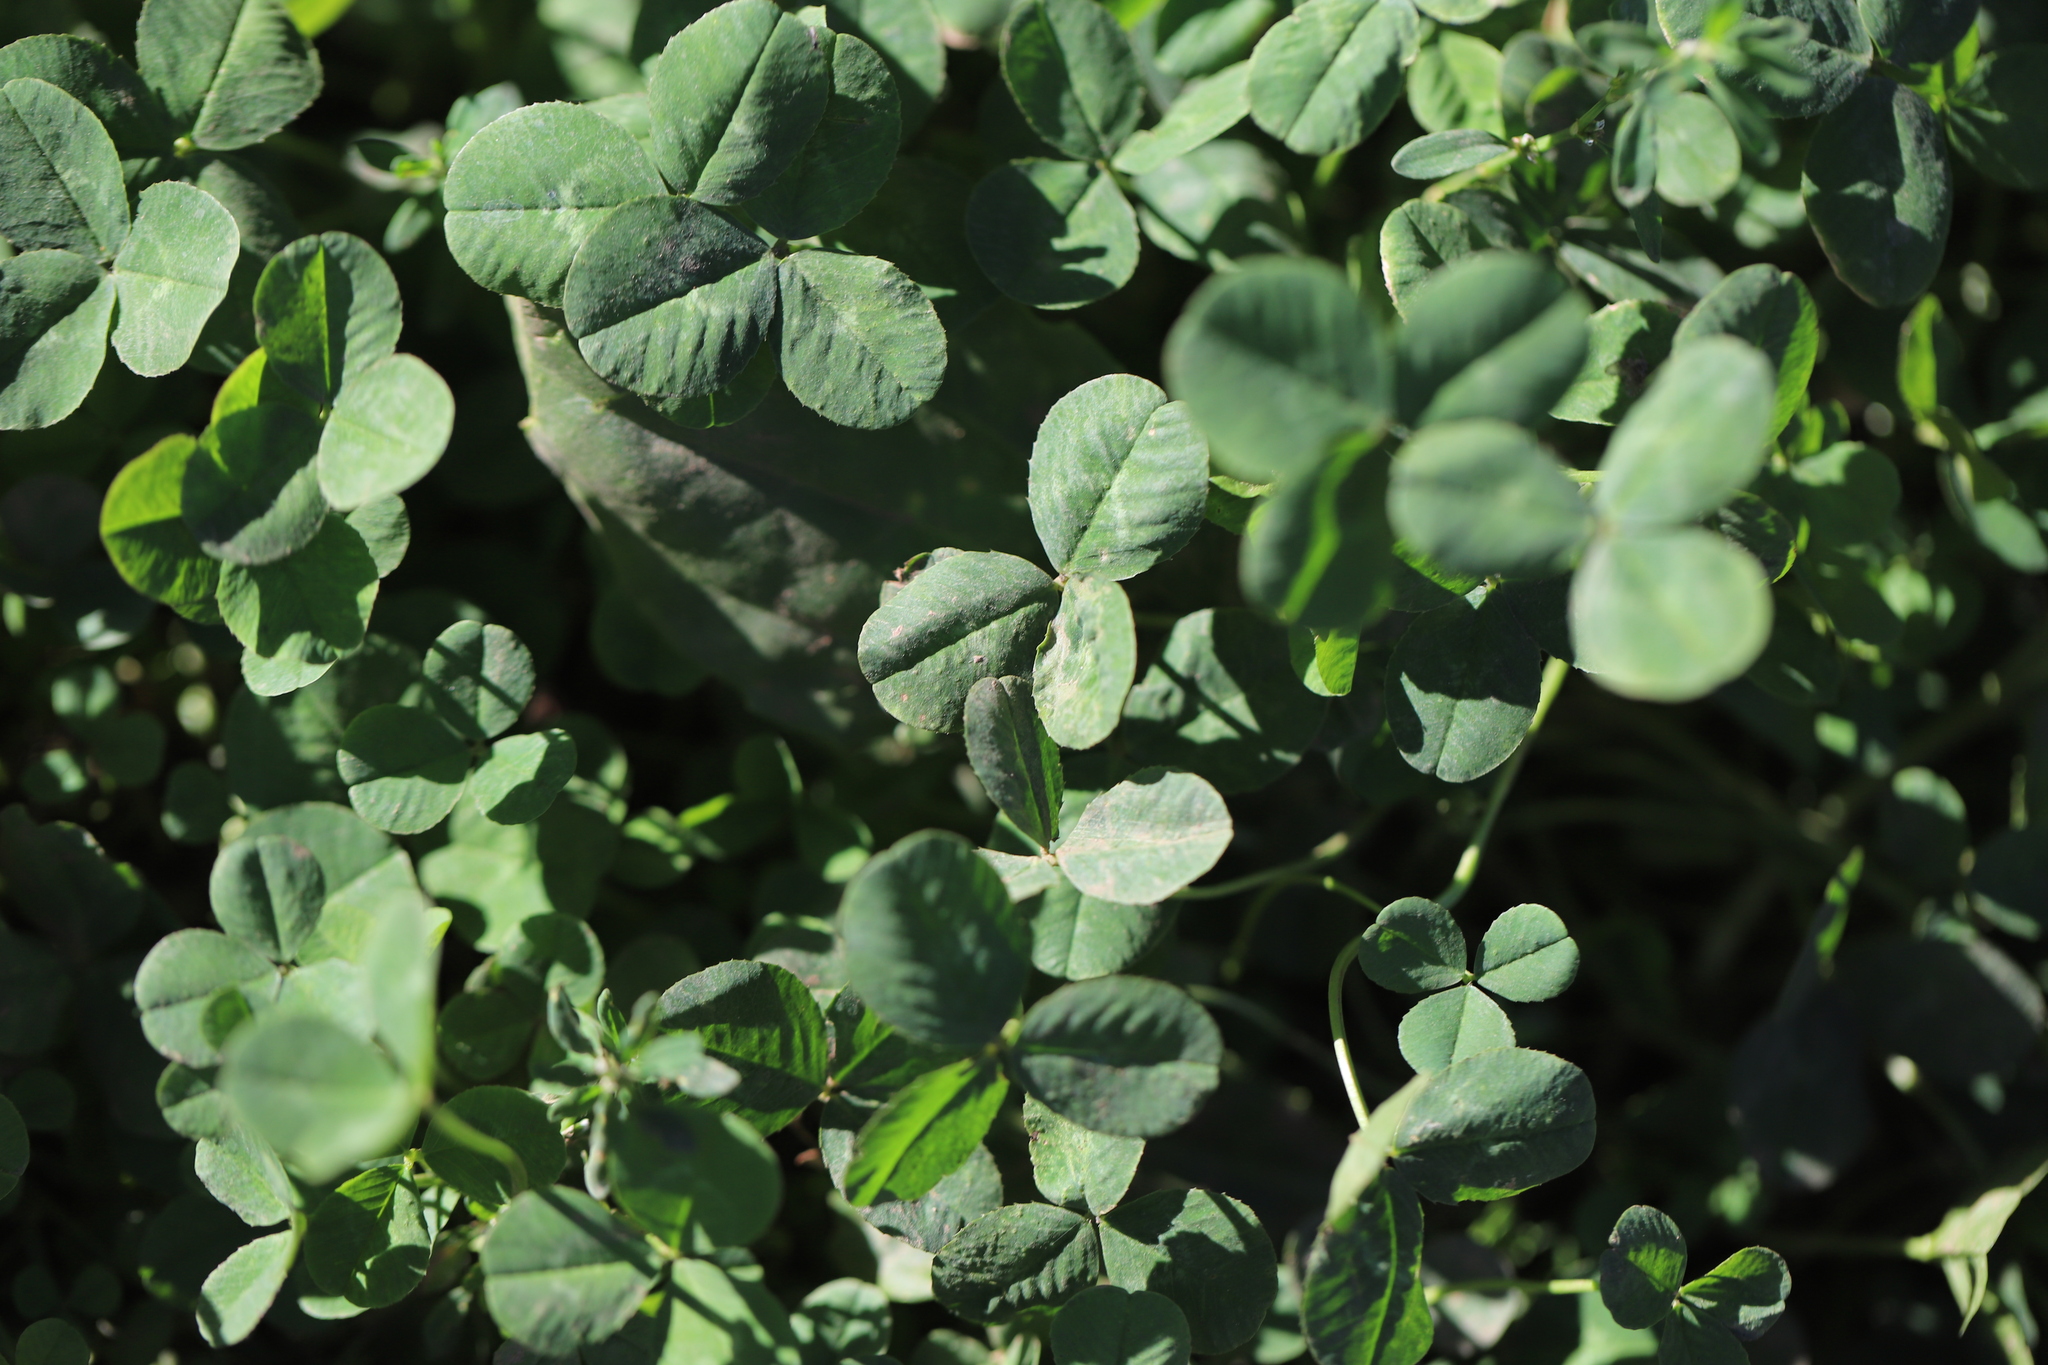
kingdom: Plantae
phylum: Tracheophyta
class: Magnoliopsida
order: Fabales
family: Fabaceae
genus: Trifolium
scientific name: Trifolium repens
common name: White clover
